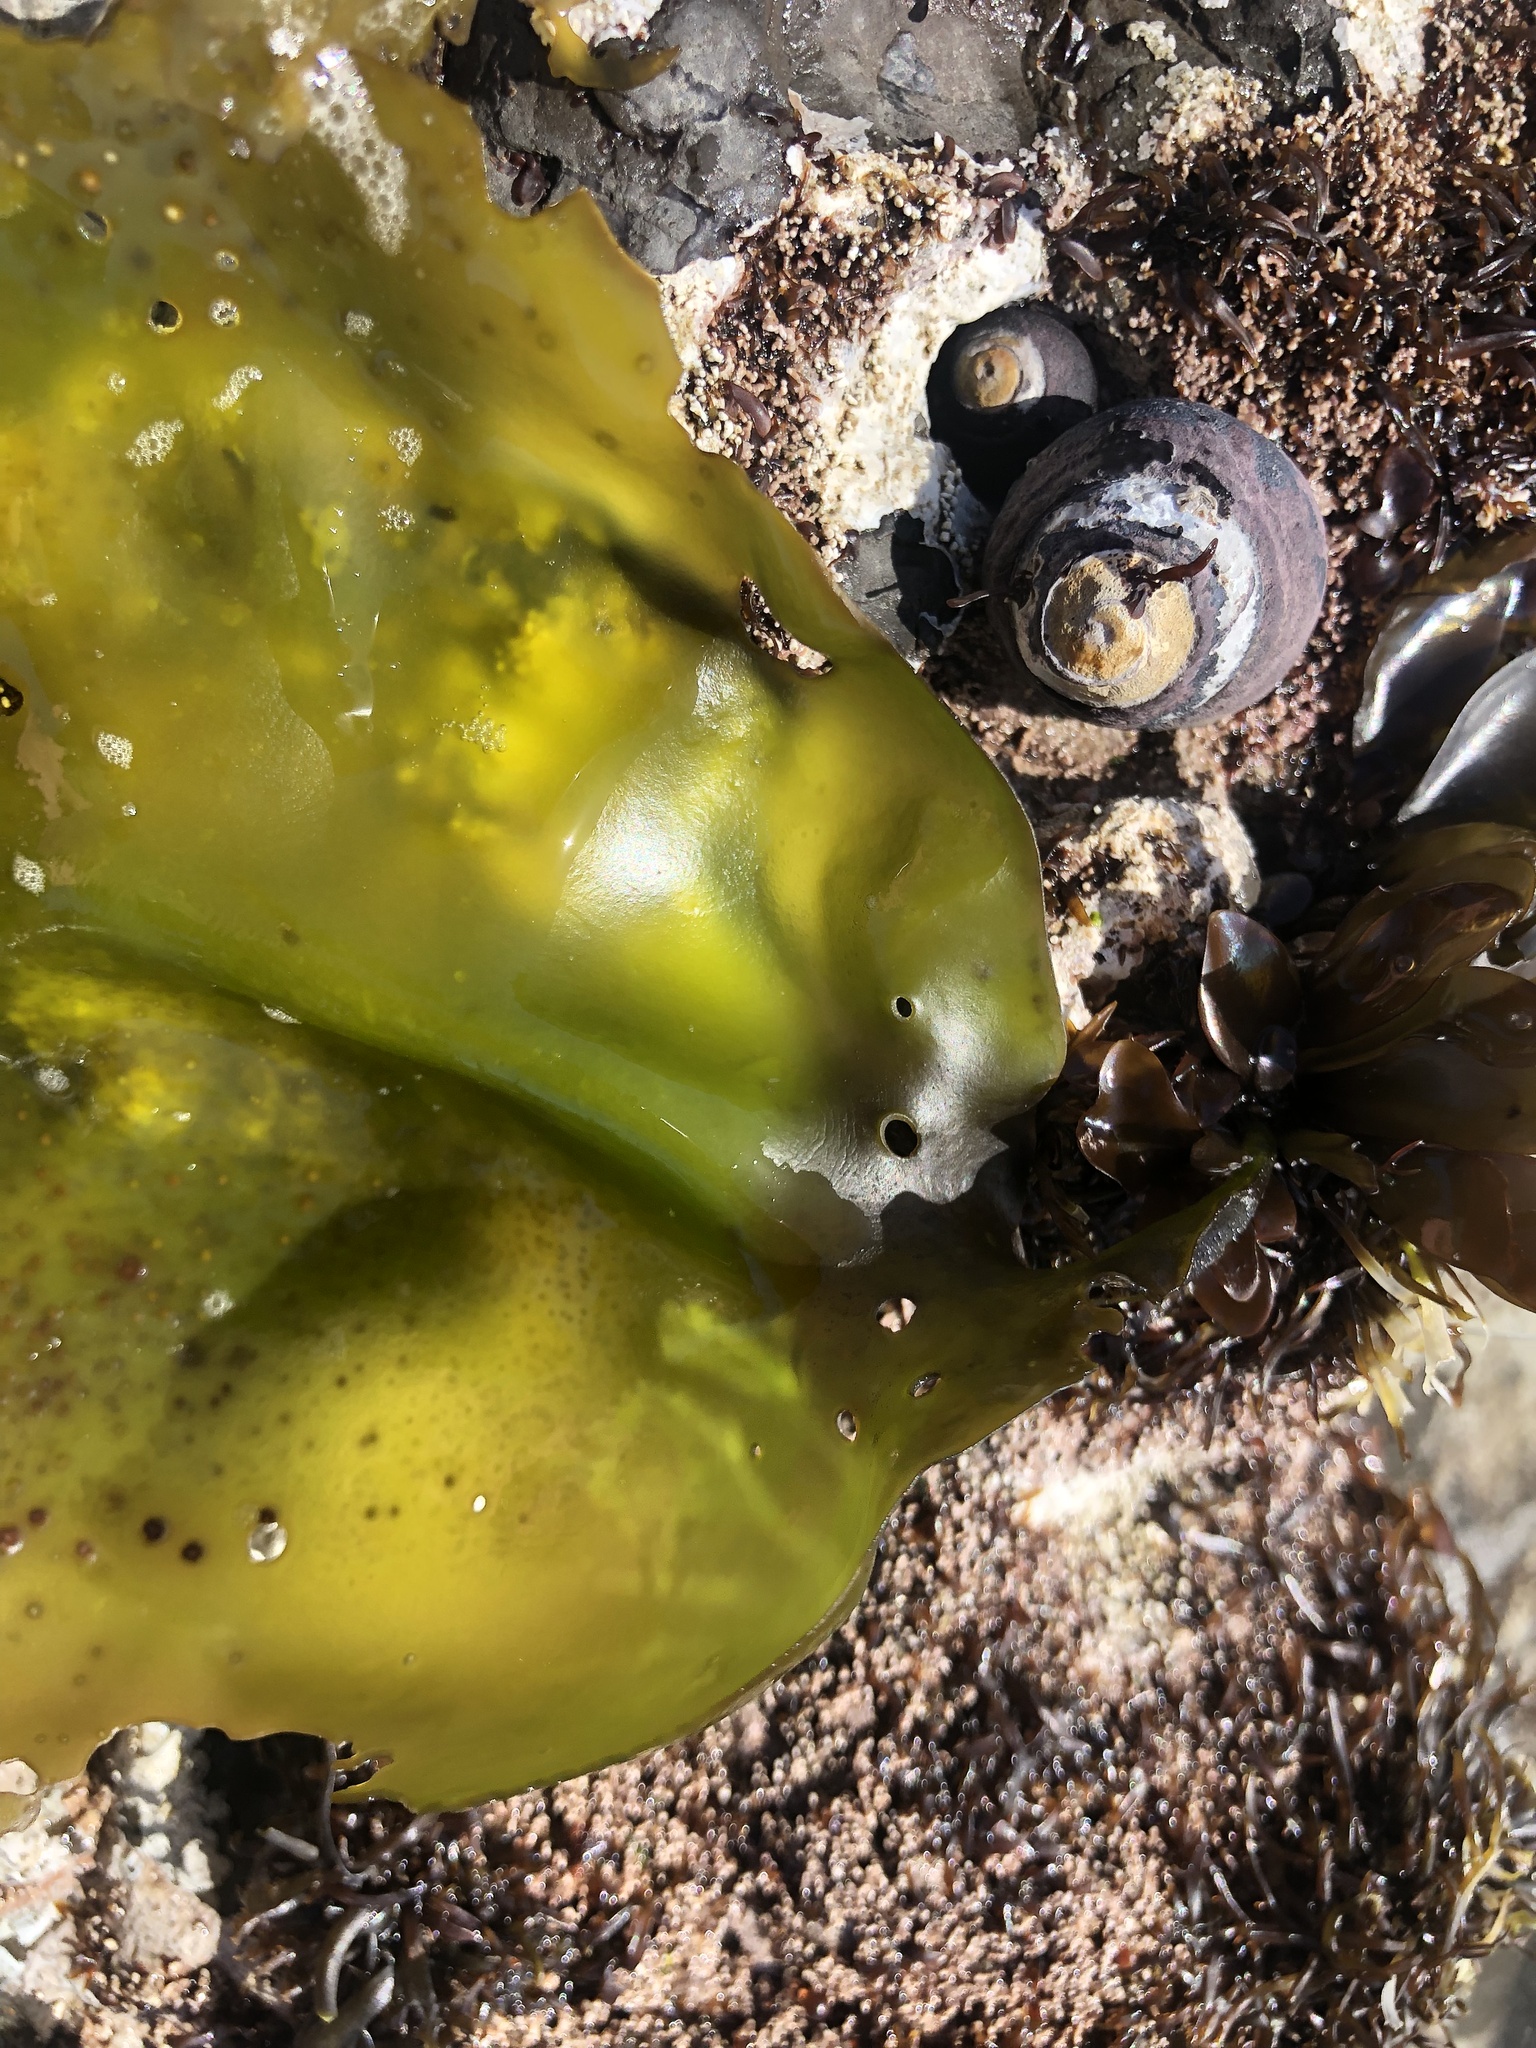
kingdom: Plantae
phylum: Rhodophyta
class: Florideophyceae
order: Gigartinales
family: Gigartinaceae
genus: Mazzaella
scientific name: Mazzaella flaccida
